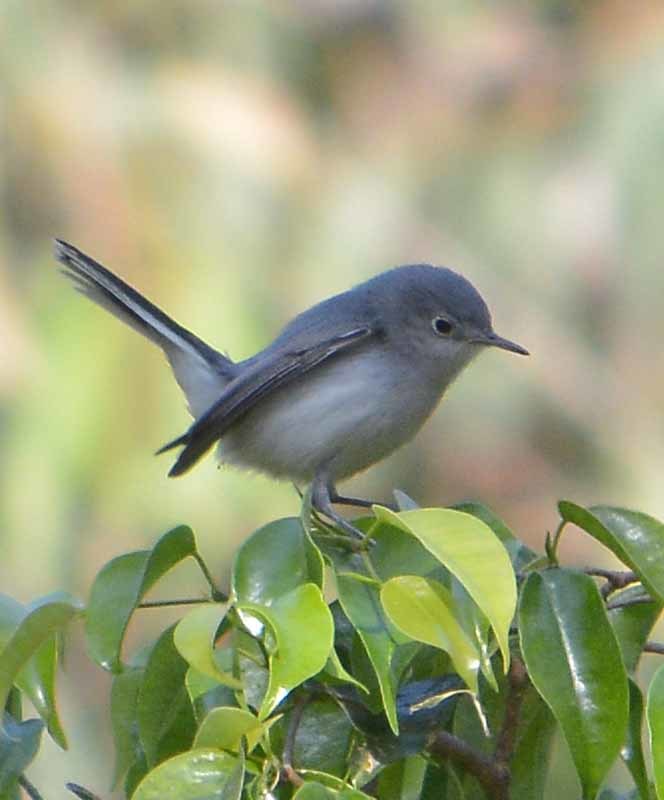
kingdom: Animalia
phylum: Chordata
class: Aves
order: Passeriformes
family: Polioptilidae
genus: Polioptila
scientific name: Polioptila caerulea
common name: Blue-gray gnatcatcher
